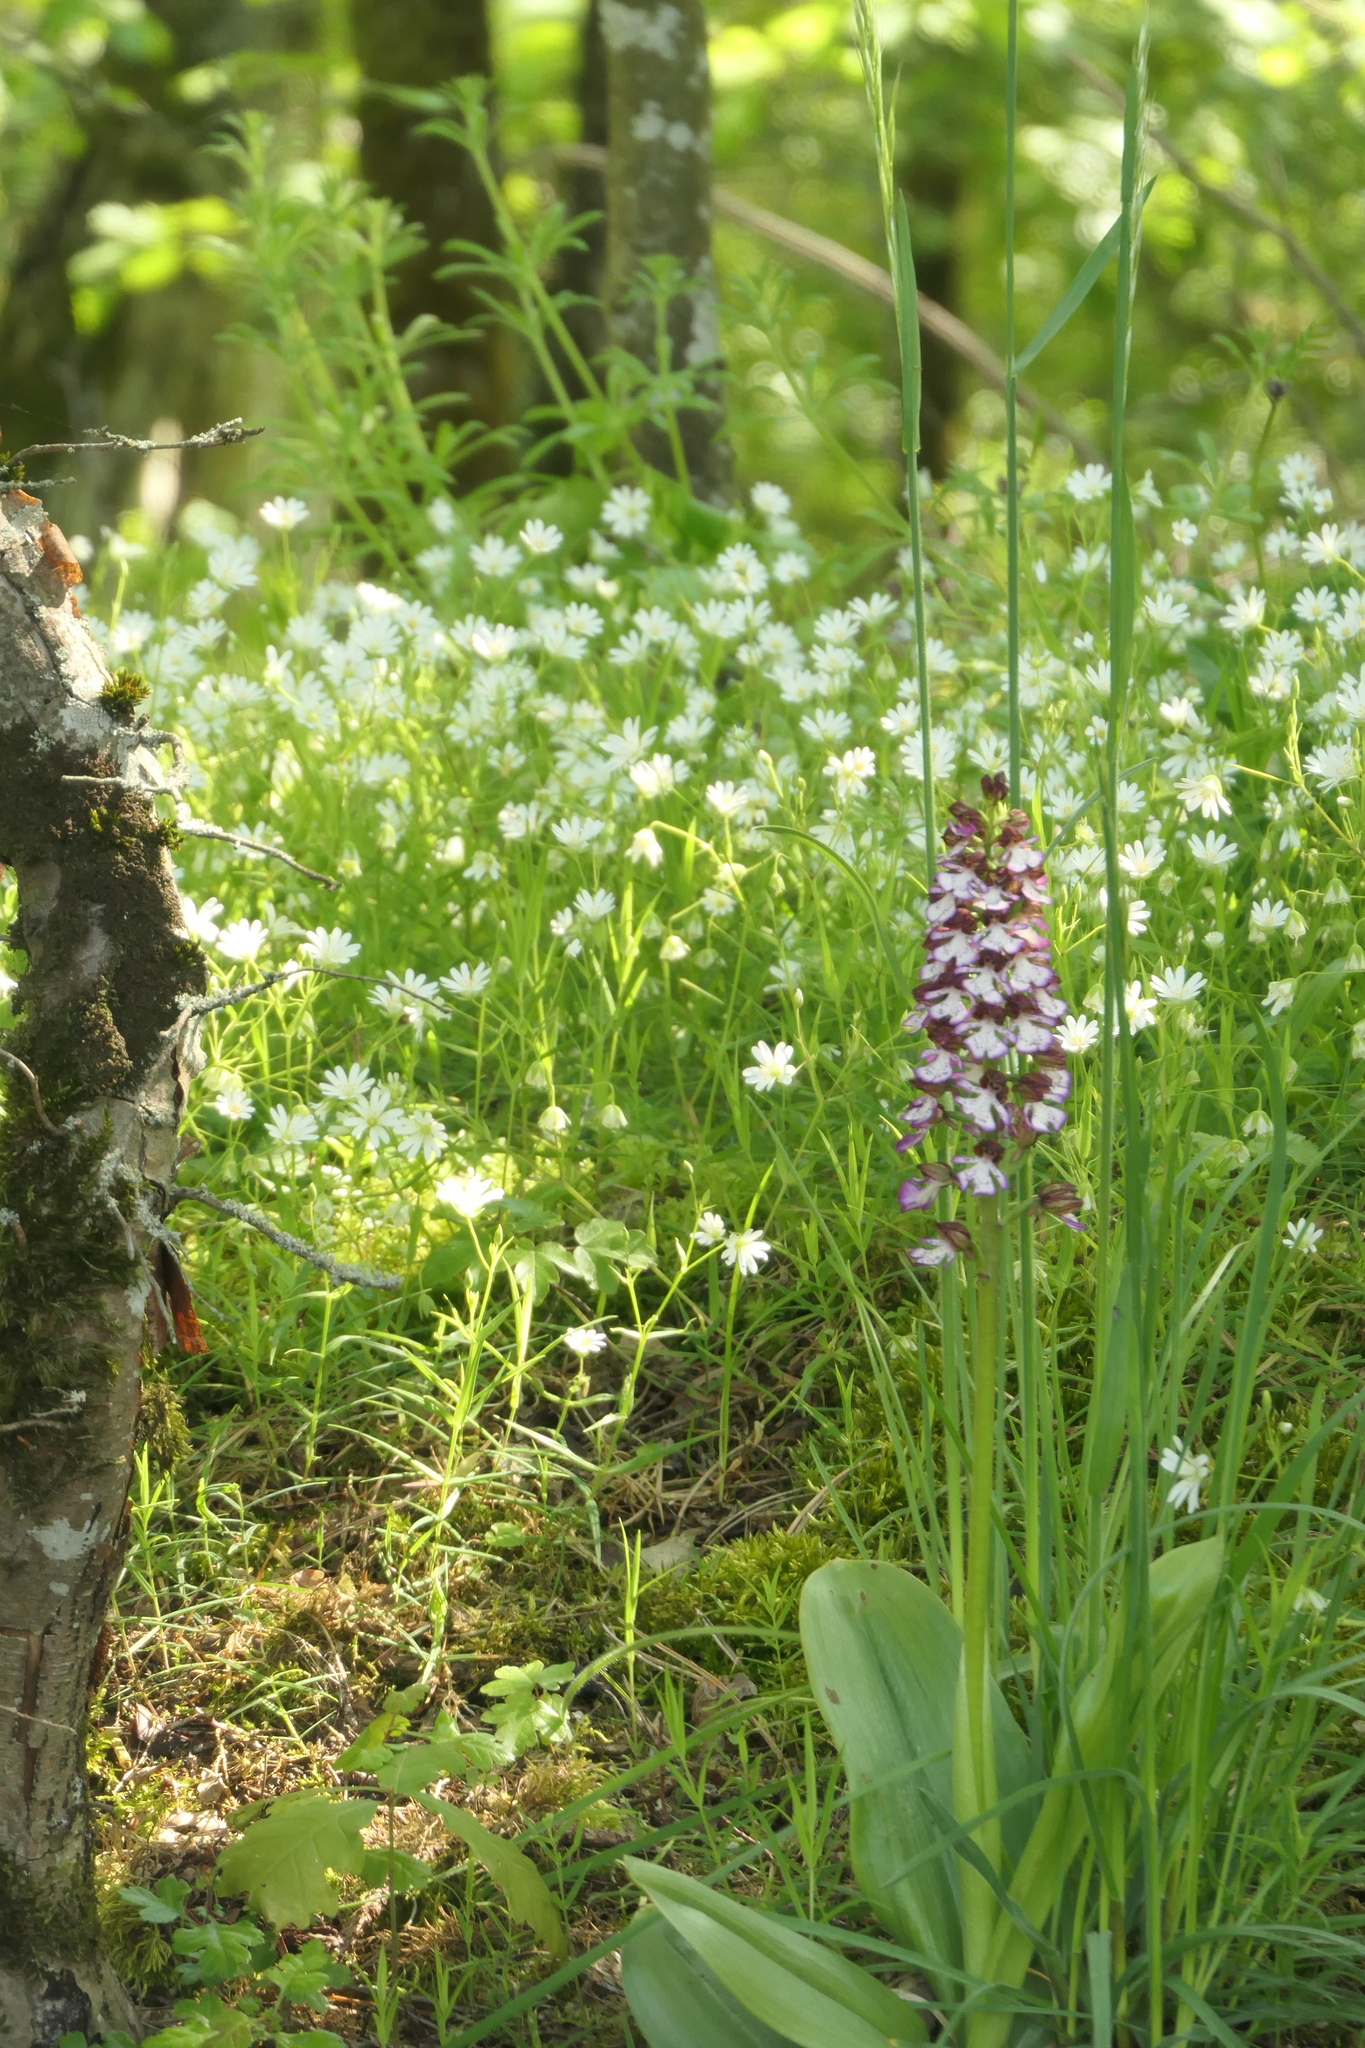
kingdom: Plantae
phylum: Tracheophyta
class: Liliopsida
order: Asparagales
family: Orchidaceae
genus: Orchis
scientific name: Orchis purpurea
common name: Lady orchid
